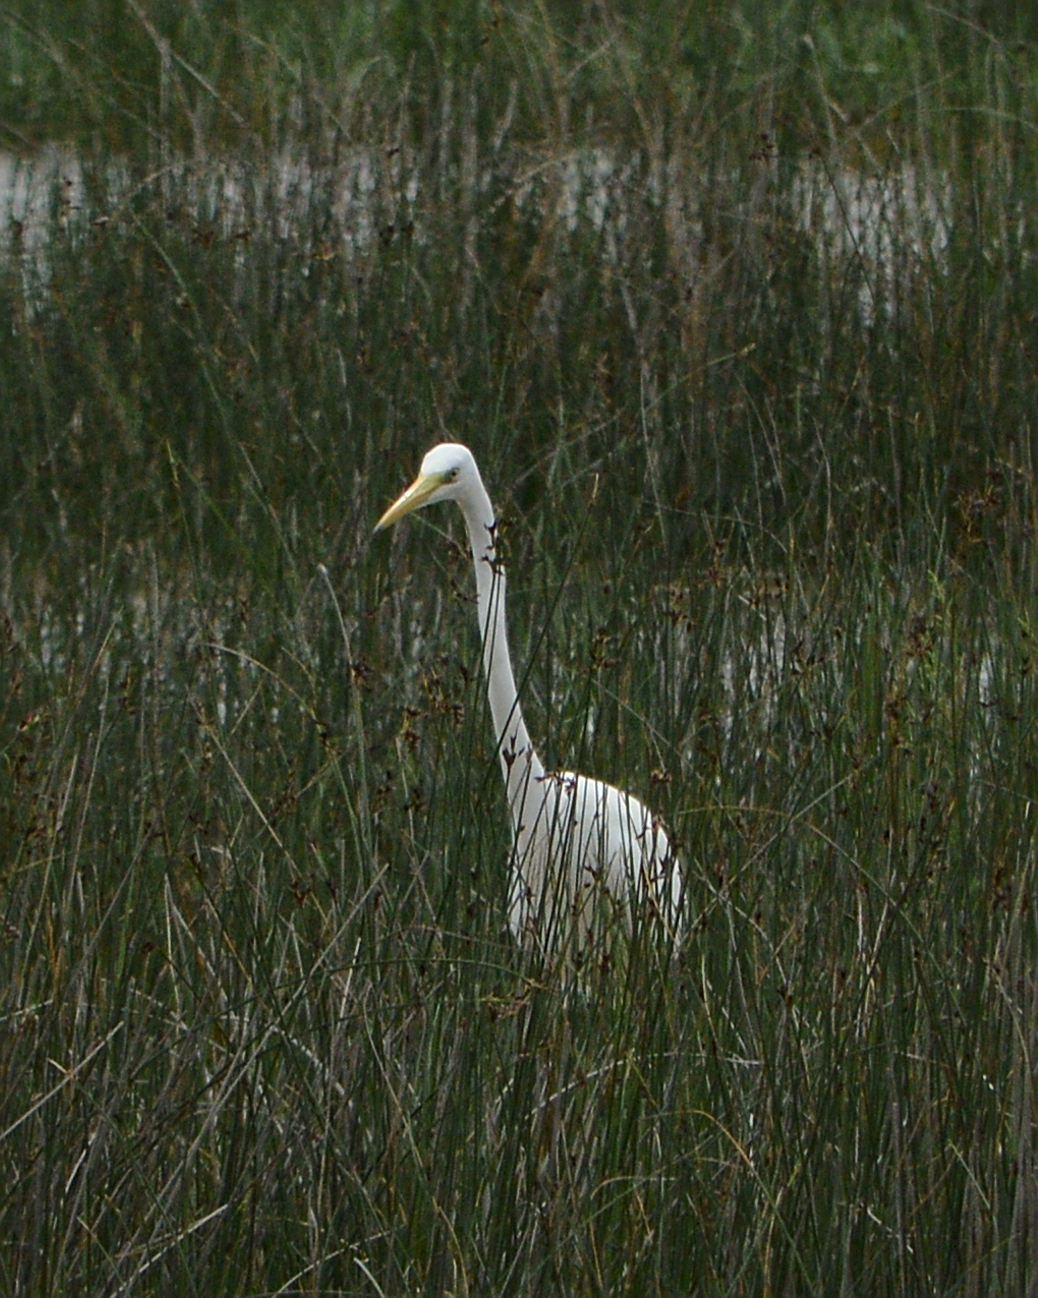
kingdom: Animalia
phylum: Chordata
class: Aves
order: Pelecaniformes
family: Ardeidae
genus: Ardea
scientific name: Ardea alba
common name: Great egret
